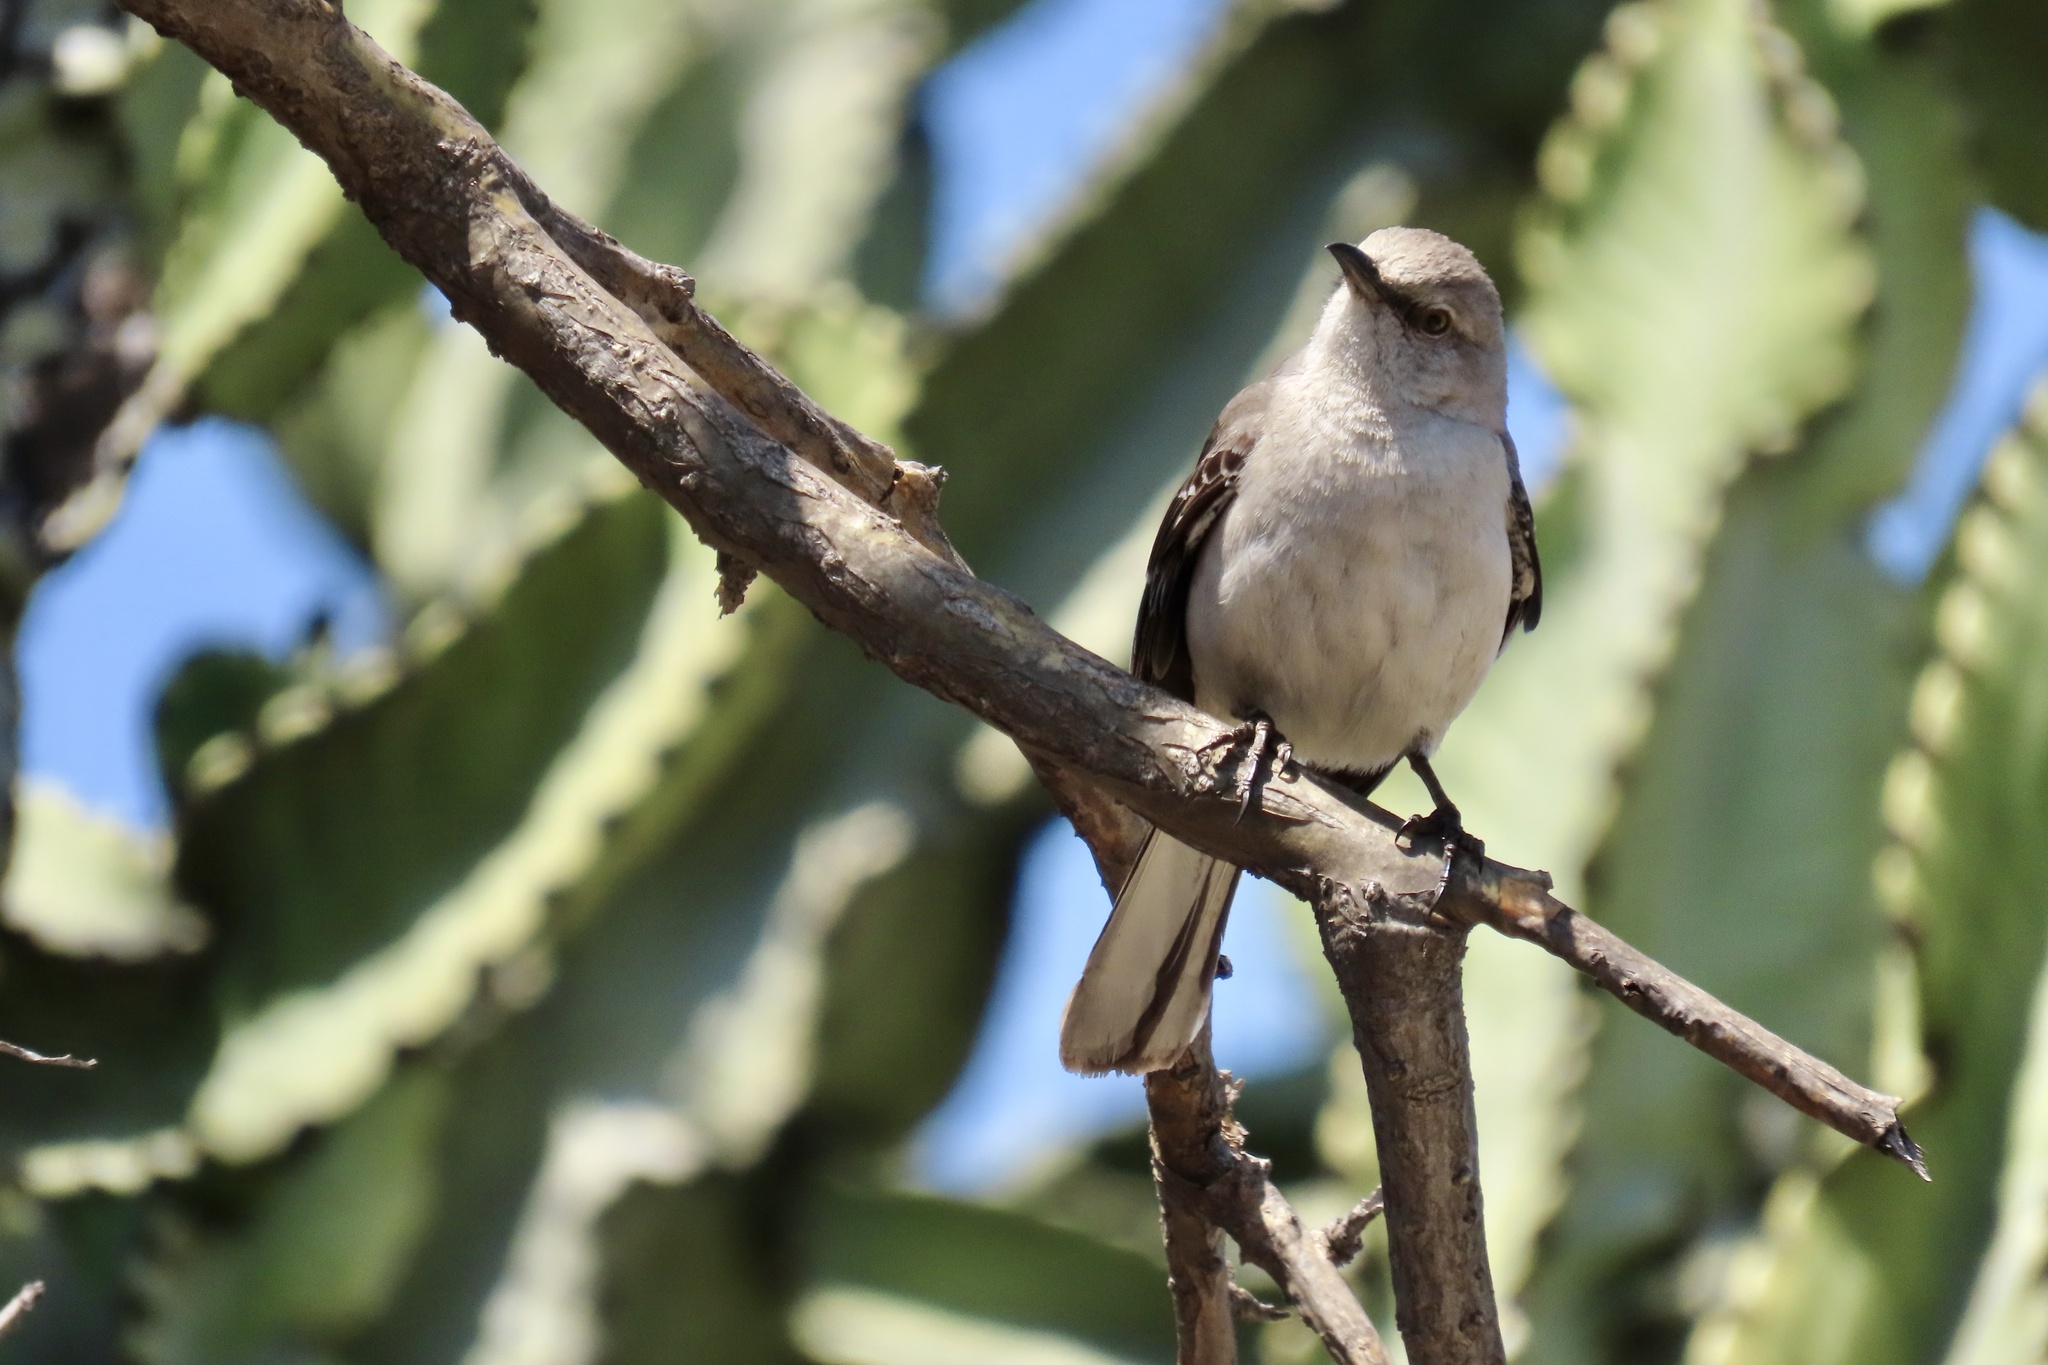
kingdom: Animalia
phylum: Chordata
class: Aves
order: Passeriformes
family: Mimidae
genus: Mimus
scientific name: Mimus polyglottos
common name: Northern mockingbird
